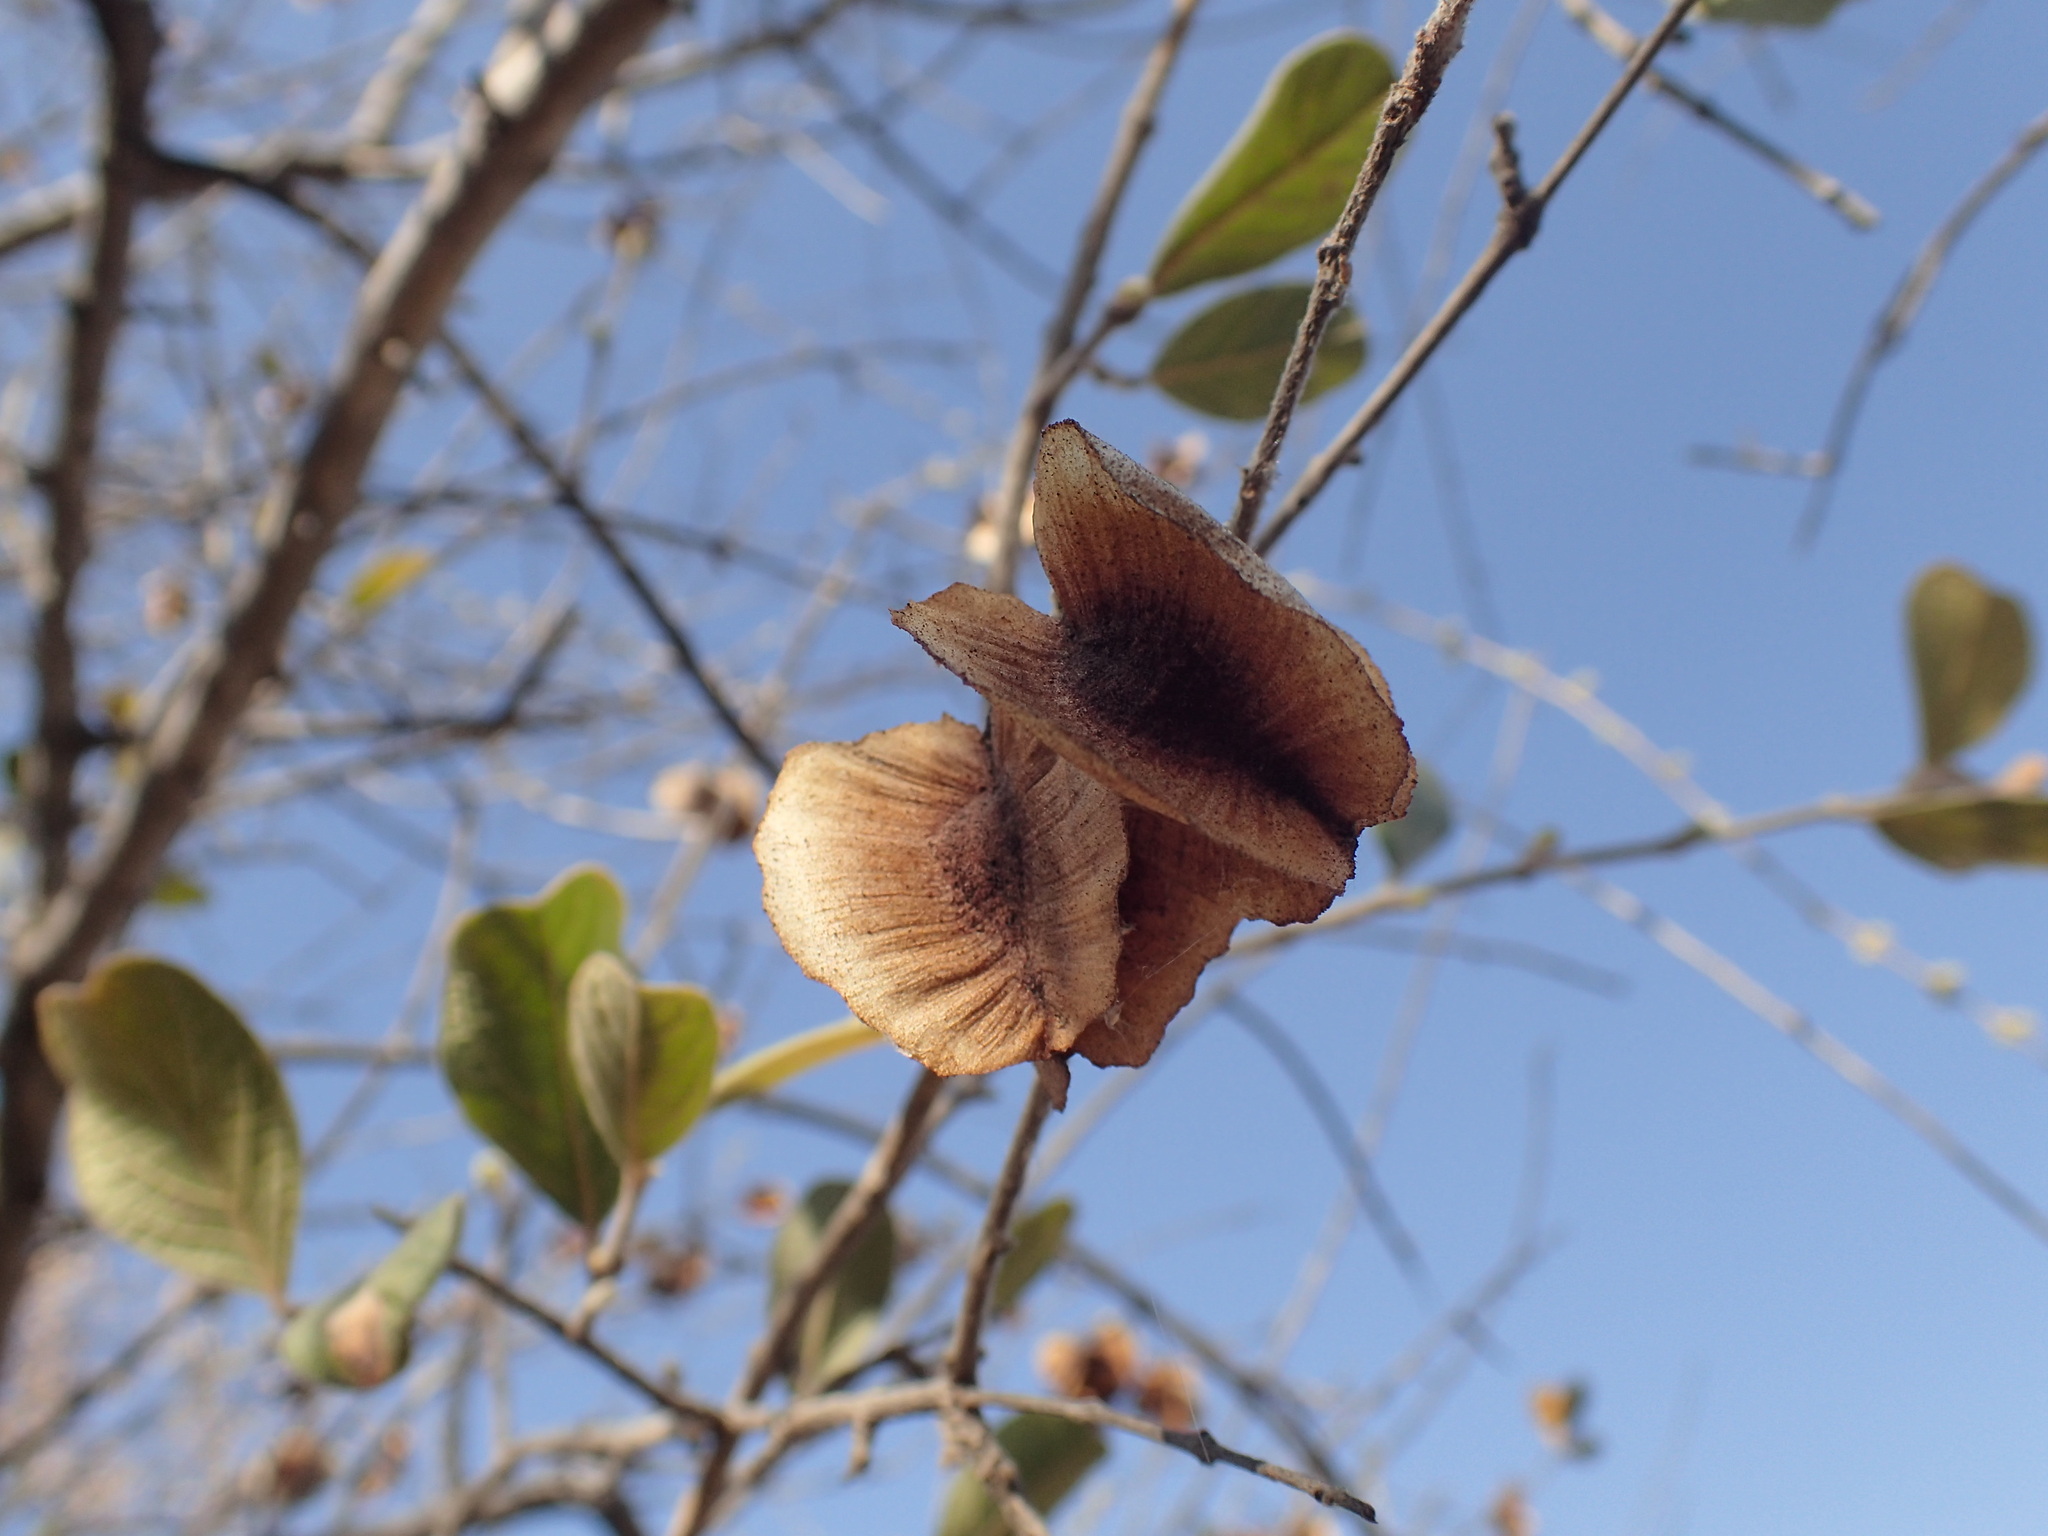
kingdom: Plantae
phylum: Tracheophyta
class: Magnoliopsida
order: Myrtales
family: Combretaceae
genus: Combretum
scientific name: Combretum molle
